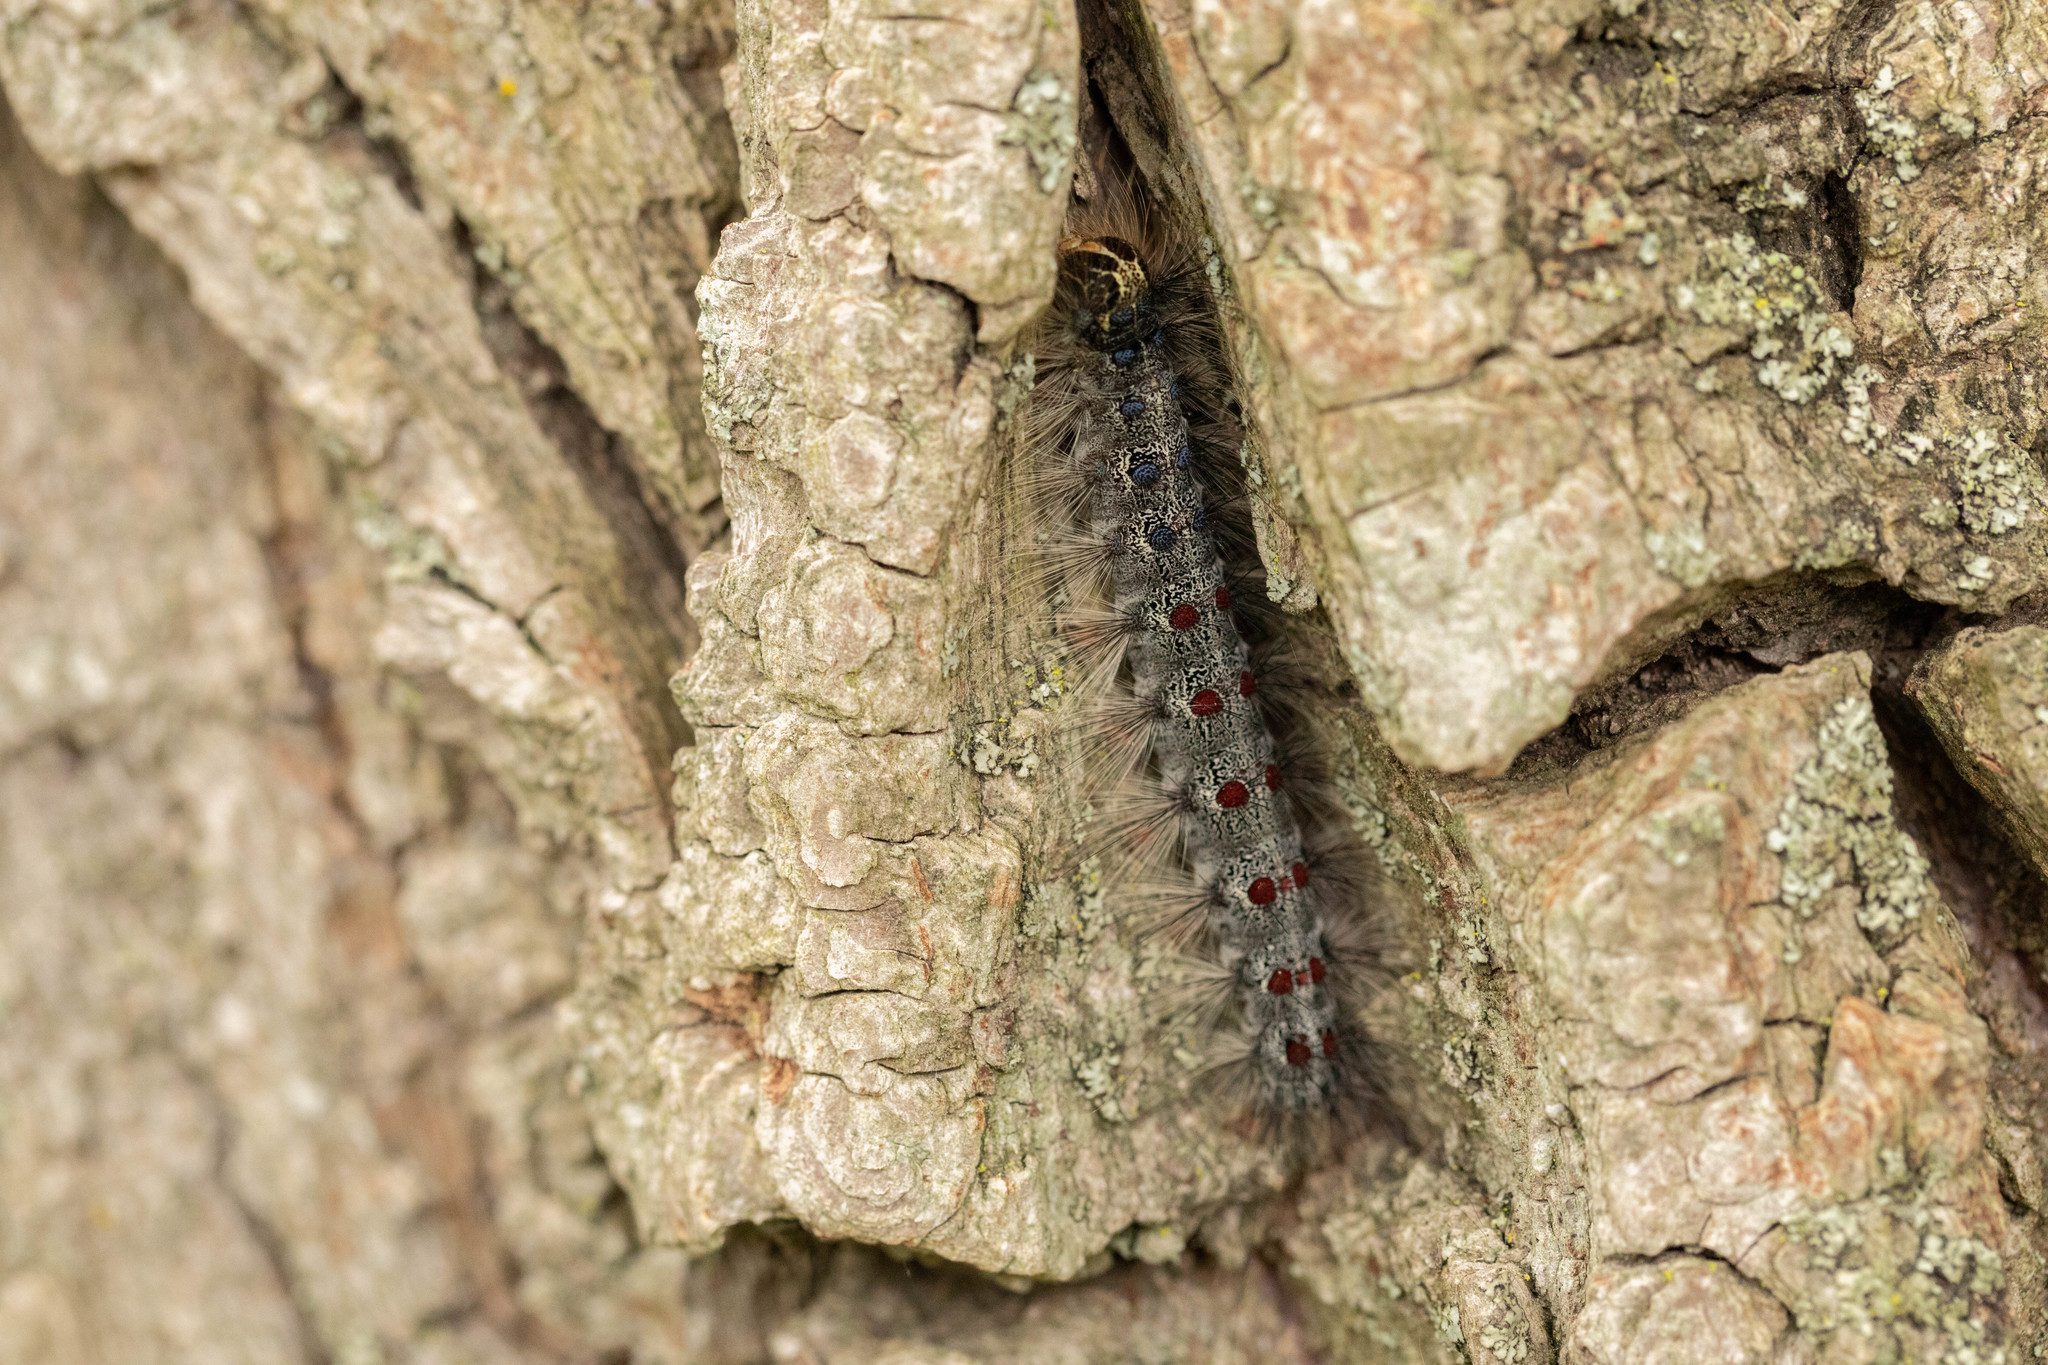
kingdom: Animalia
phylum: Arthropoda
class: Insecta
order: Lepidoptera
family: Erebidae
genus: Lymantria
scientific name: Lymantria dispar
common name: Gypsy moth
